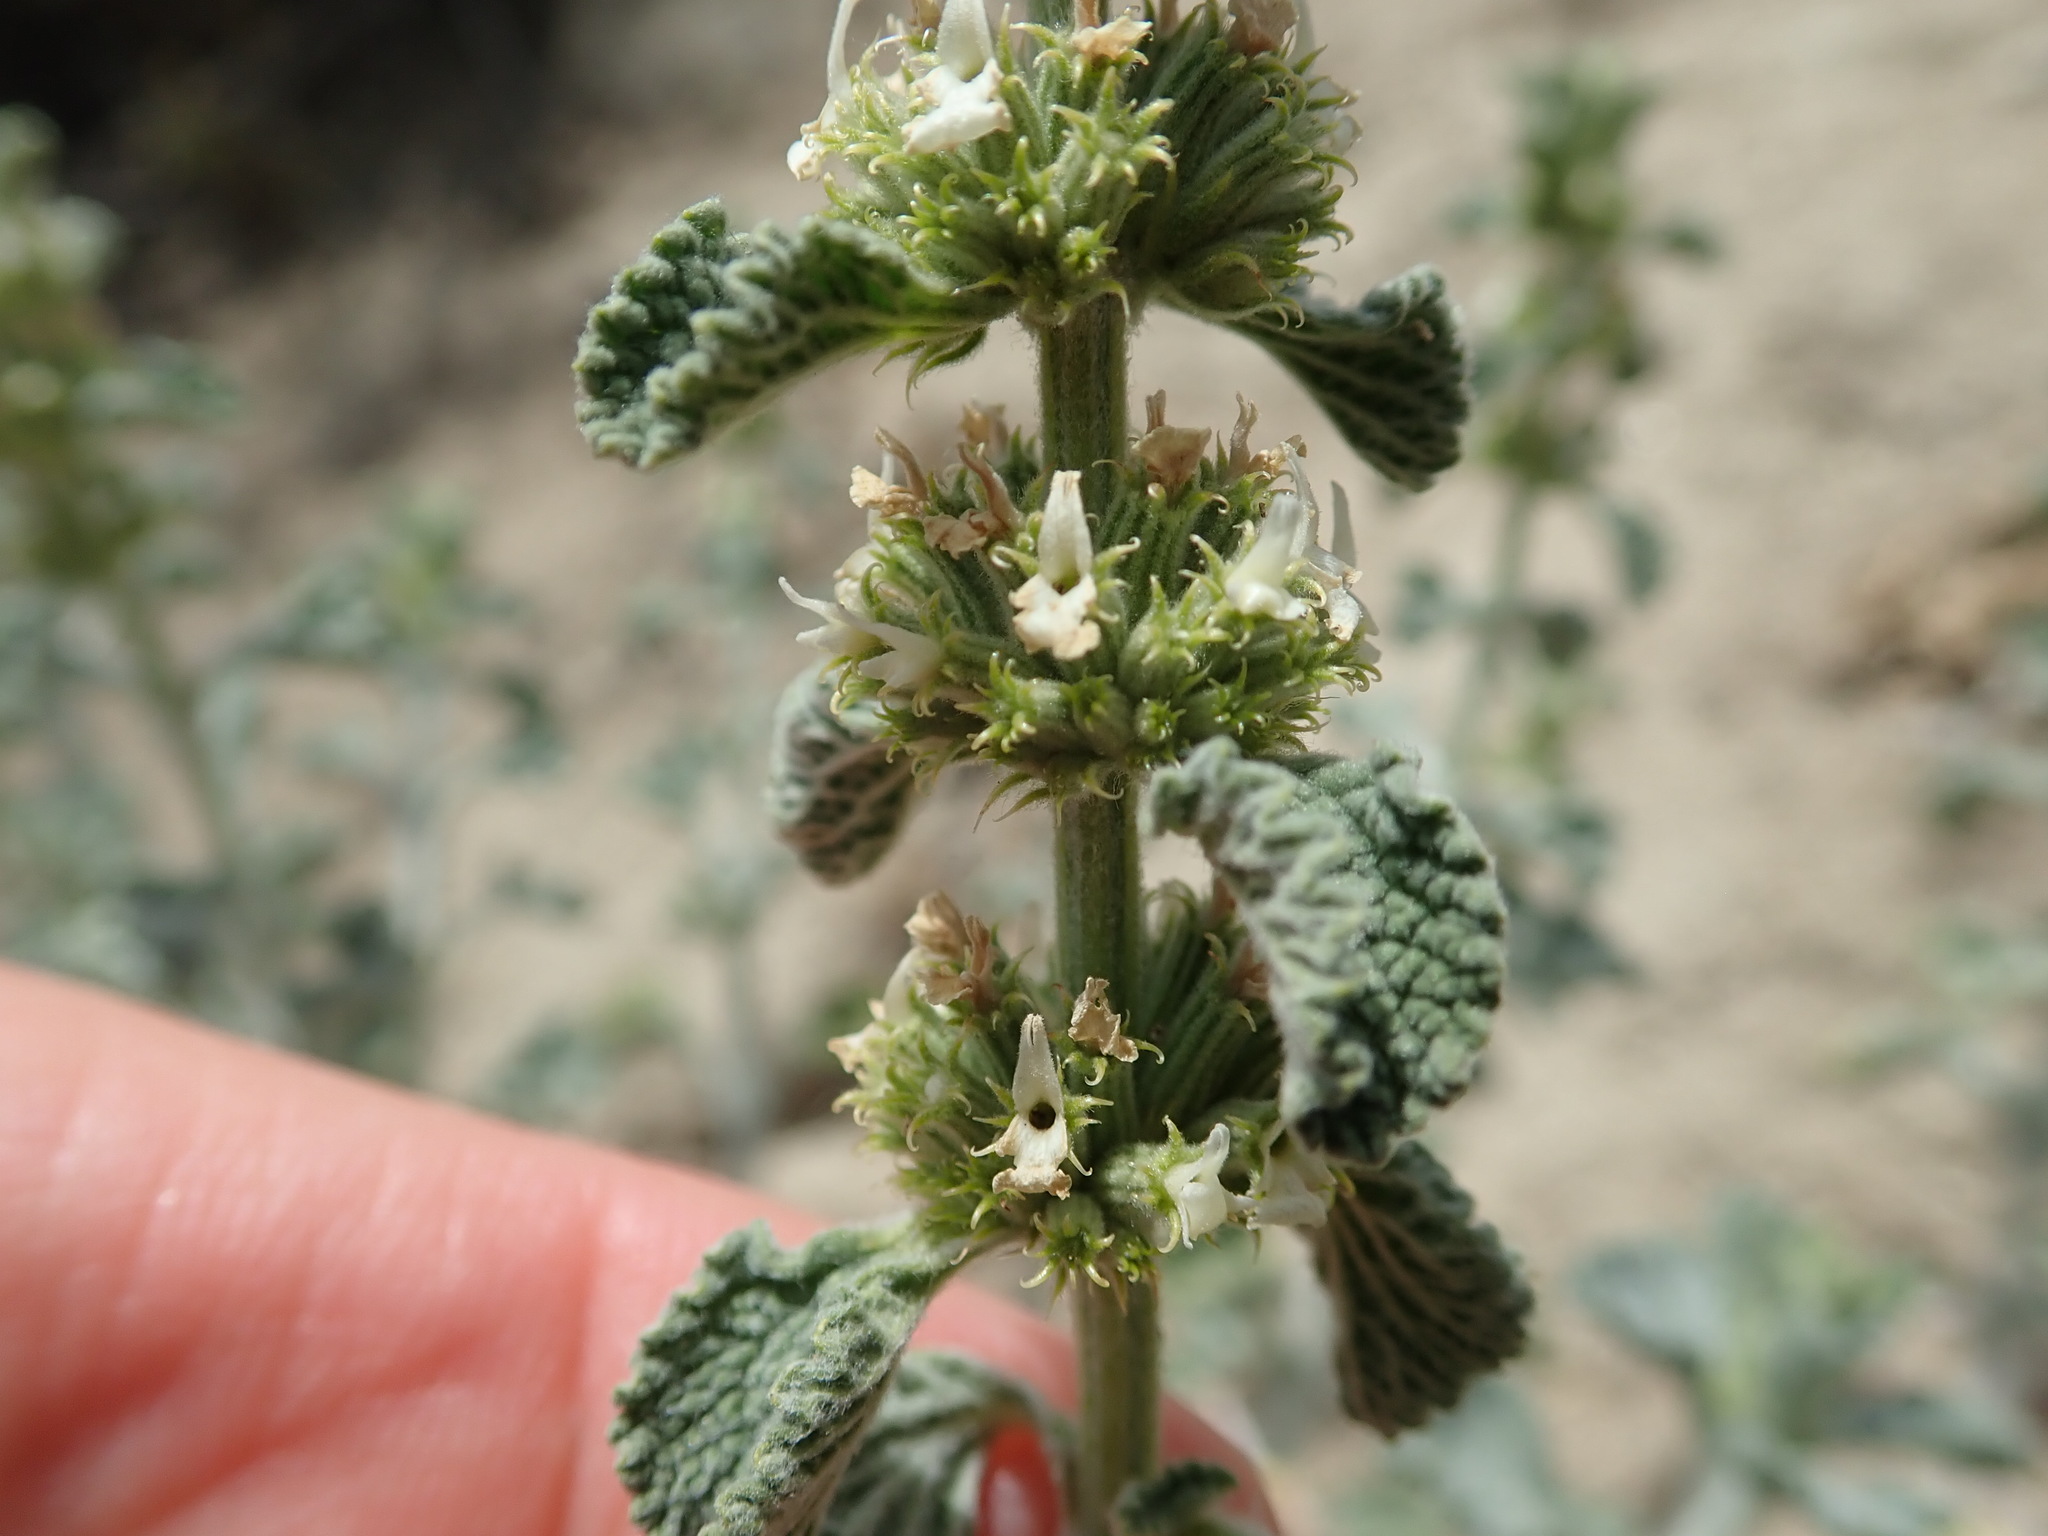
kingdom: Plantae
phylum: Tracheophyta
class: Magnoliopsida
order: Lamiales
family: Lamiaceae
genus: Marrubium
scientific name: Marrubium vulgare
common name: Horehound
